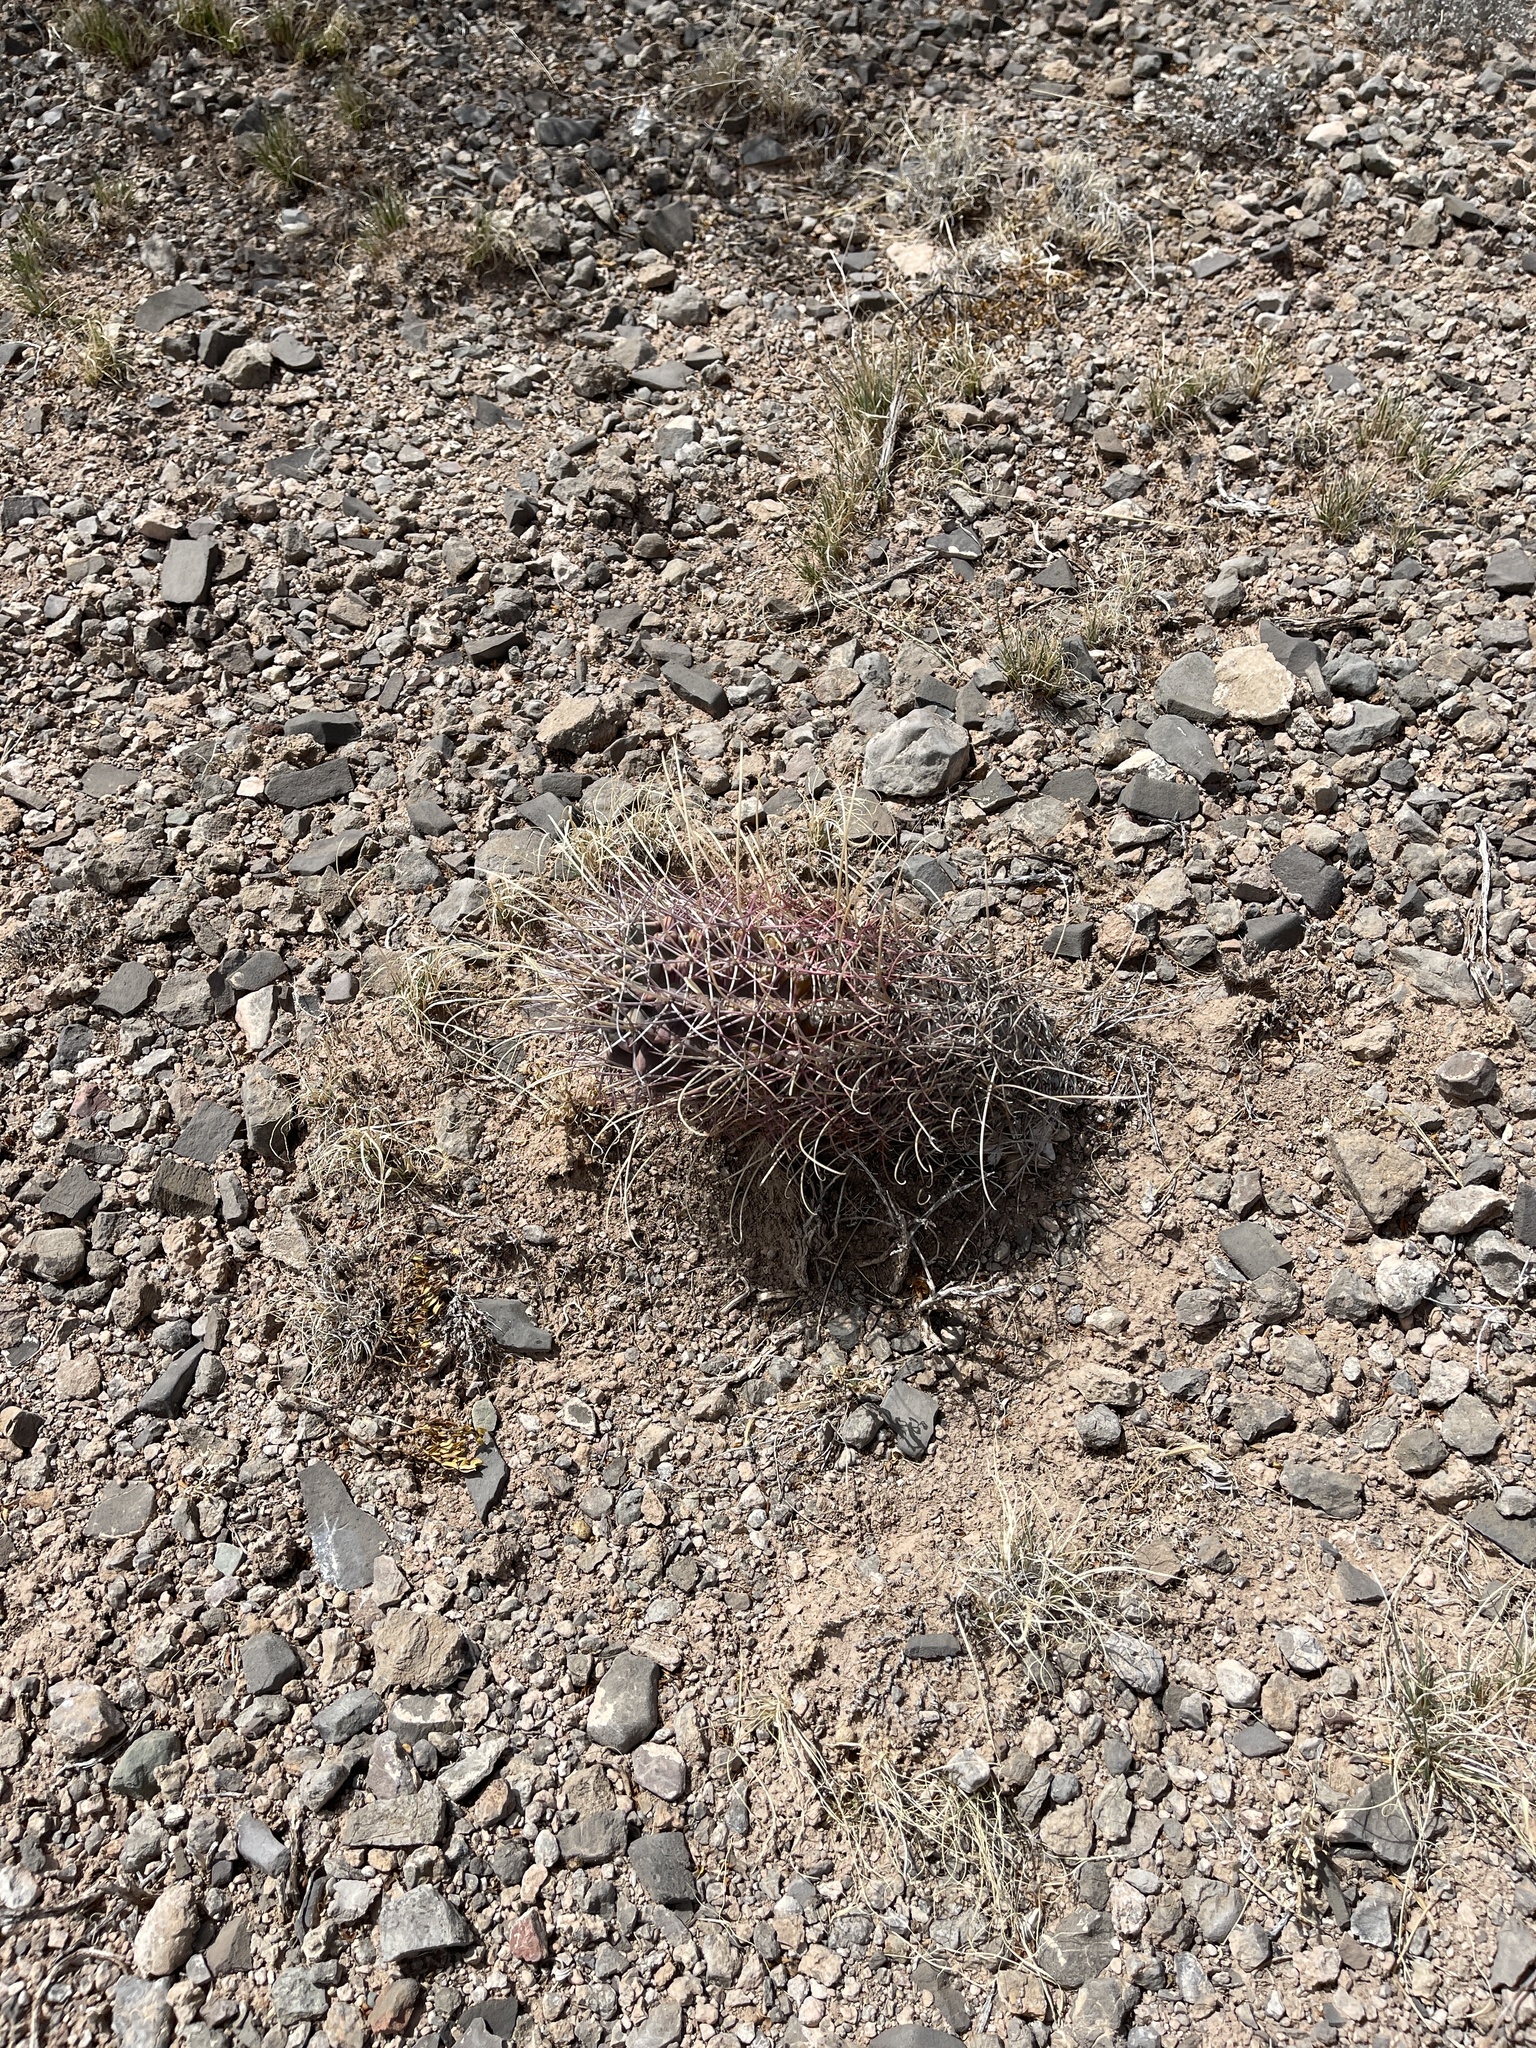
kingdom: Plantae
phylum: Tracheophyta
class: Magnoliopsida
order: Caryophyllales
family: Cactaceae
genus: Ferocactus
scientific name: Ferocactus uncinatus
